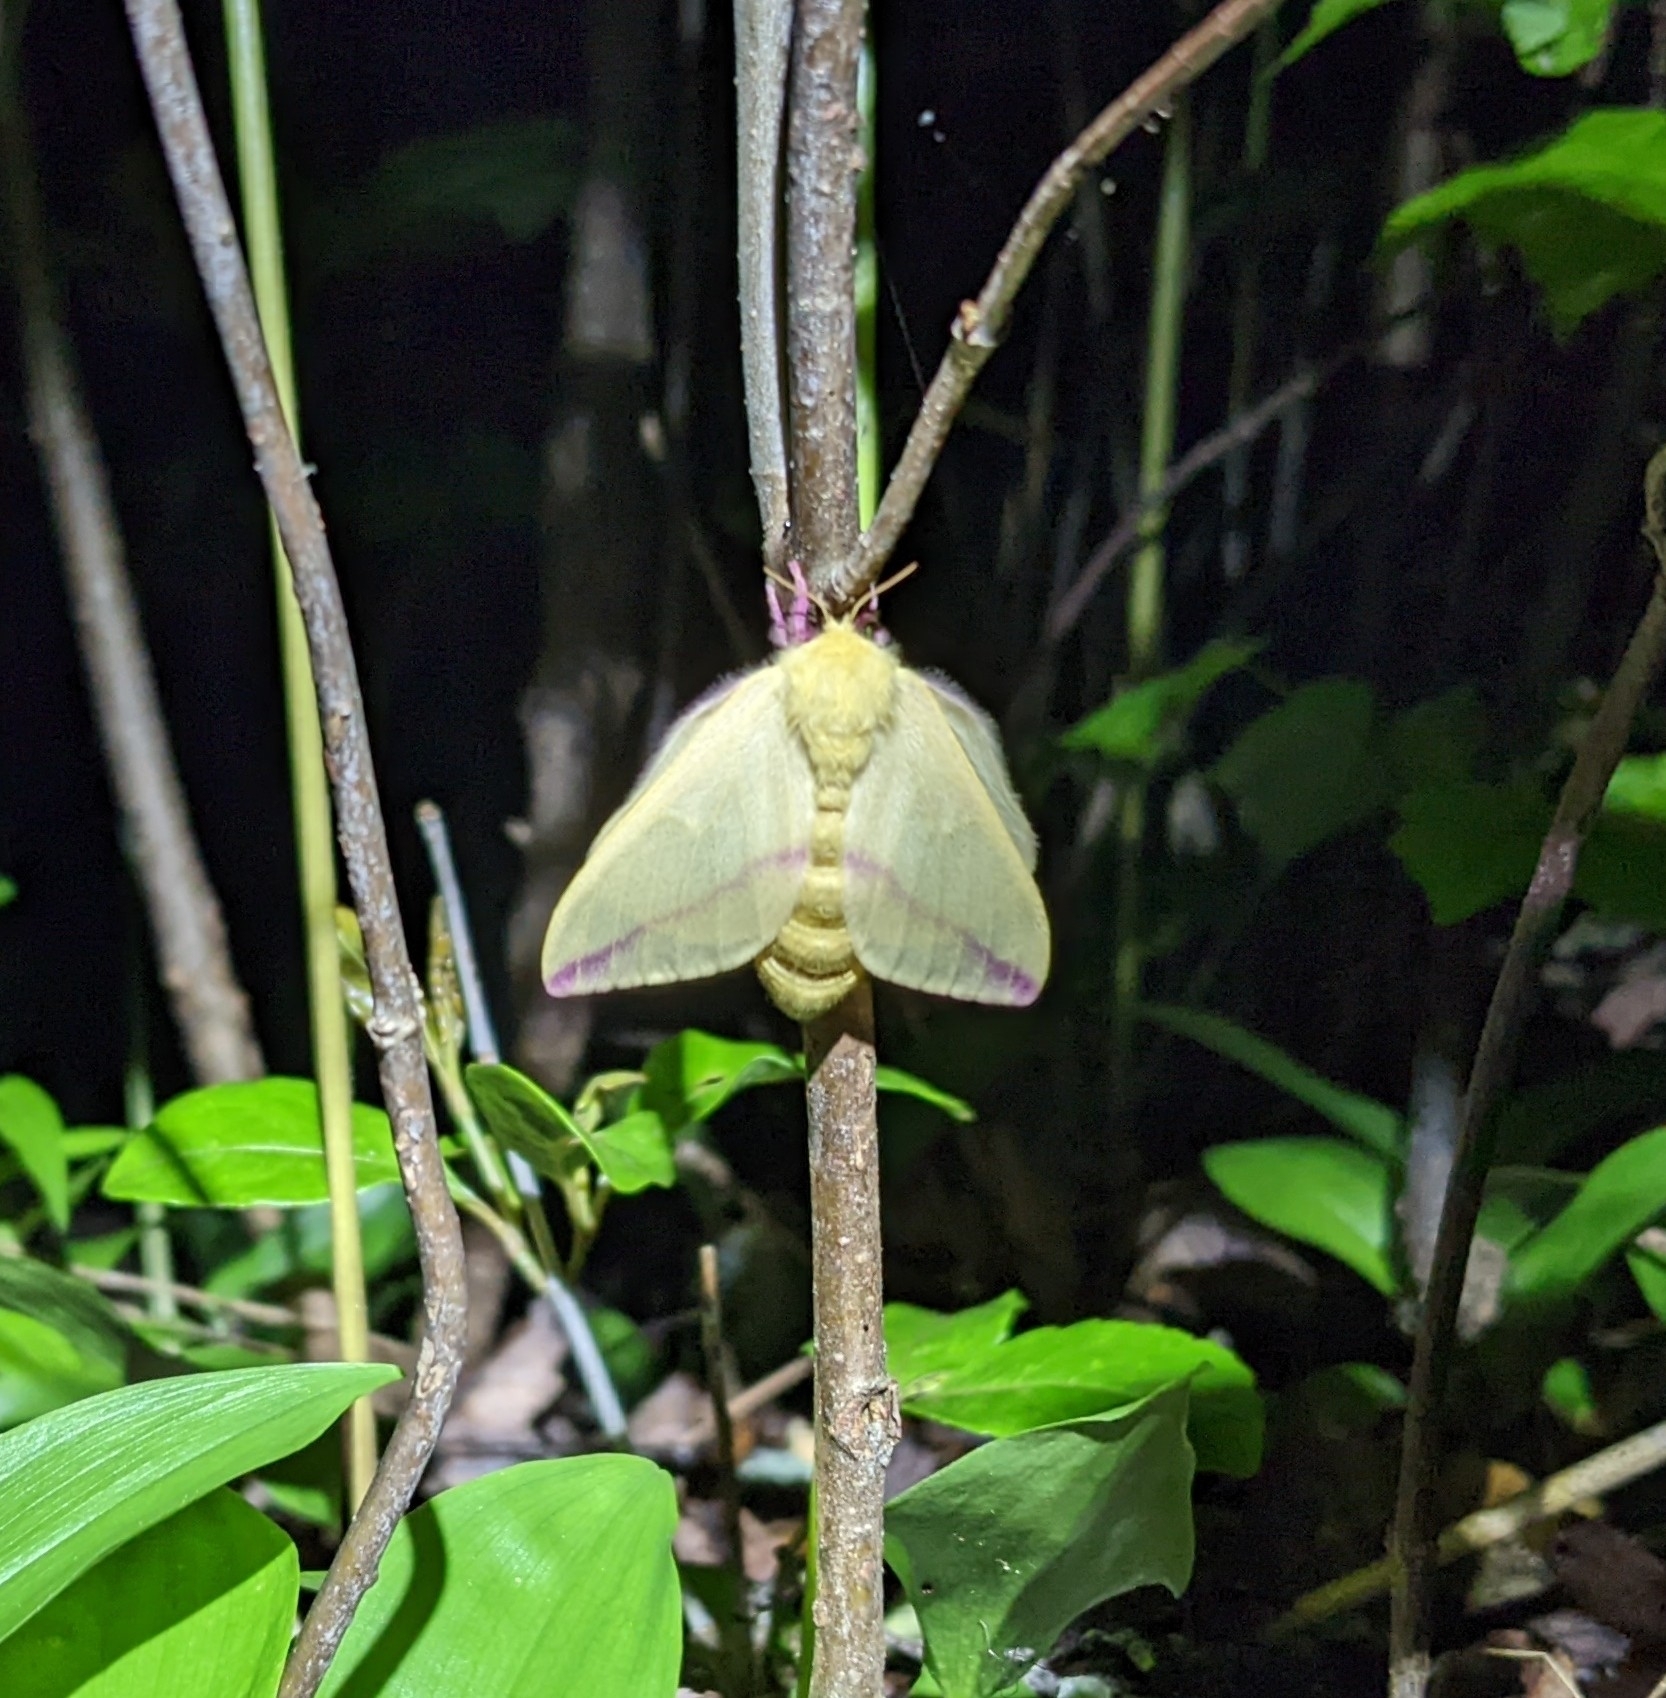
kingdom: Animalia
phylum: Arthropoda
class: Insecta
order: Lepidoptera
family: Saturniidae
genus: Dryocampa
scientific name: Dryocampa rubicunda
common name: Rosy maple moth
